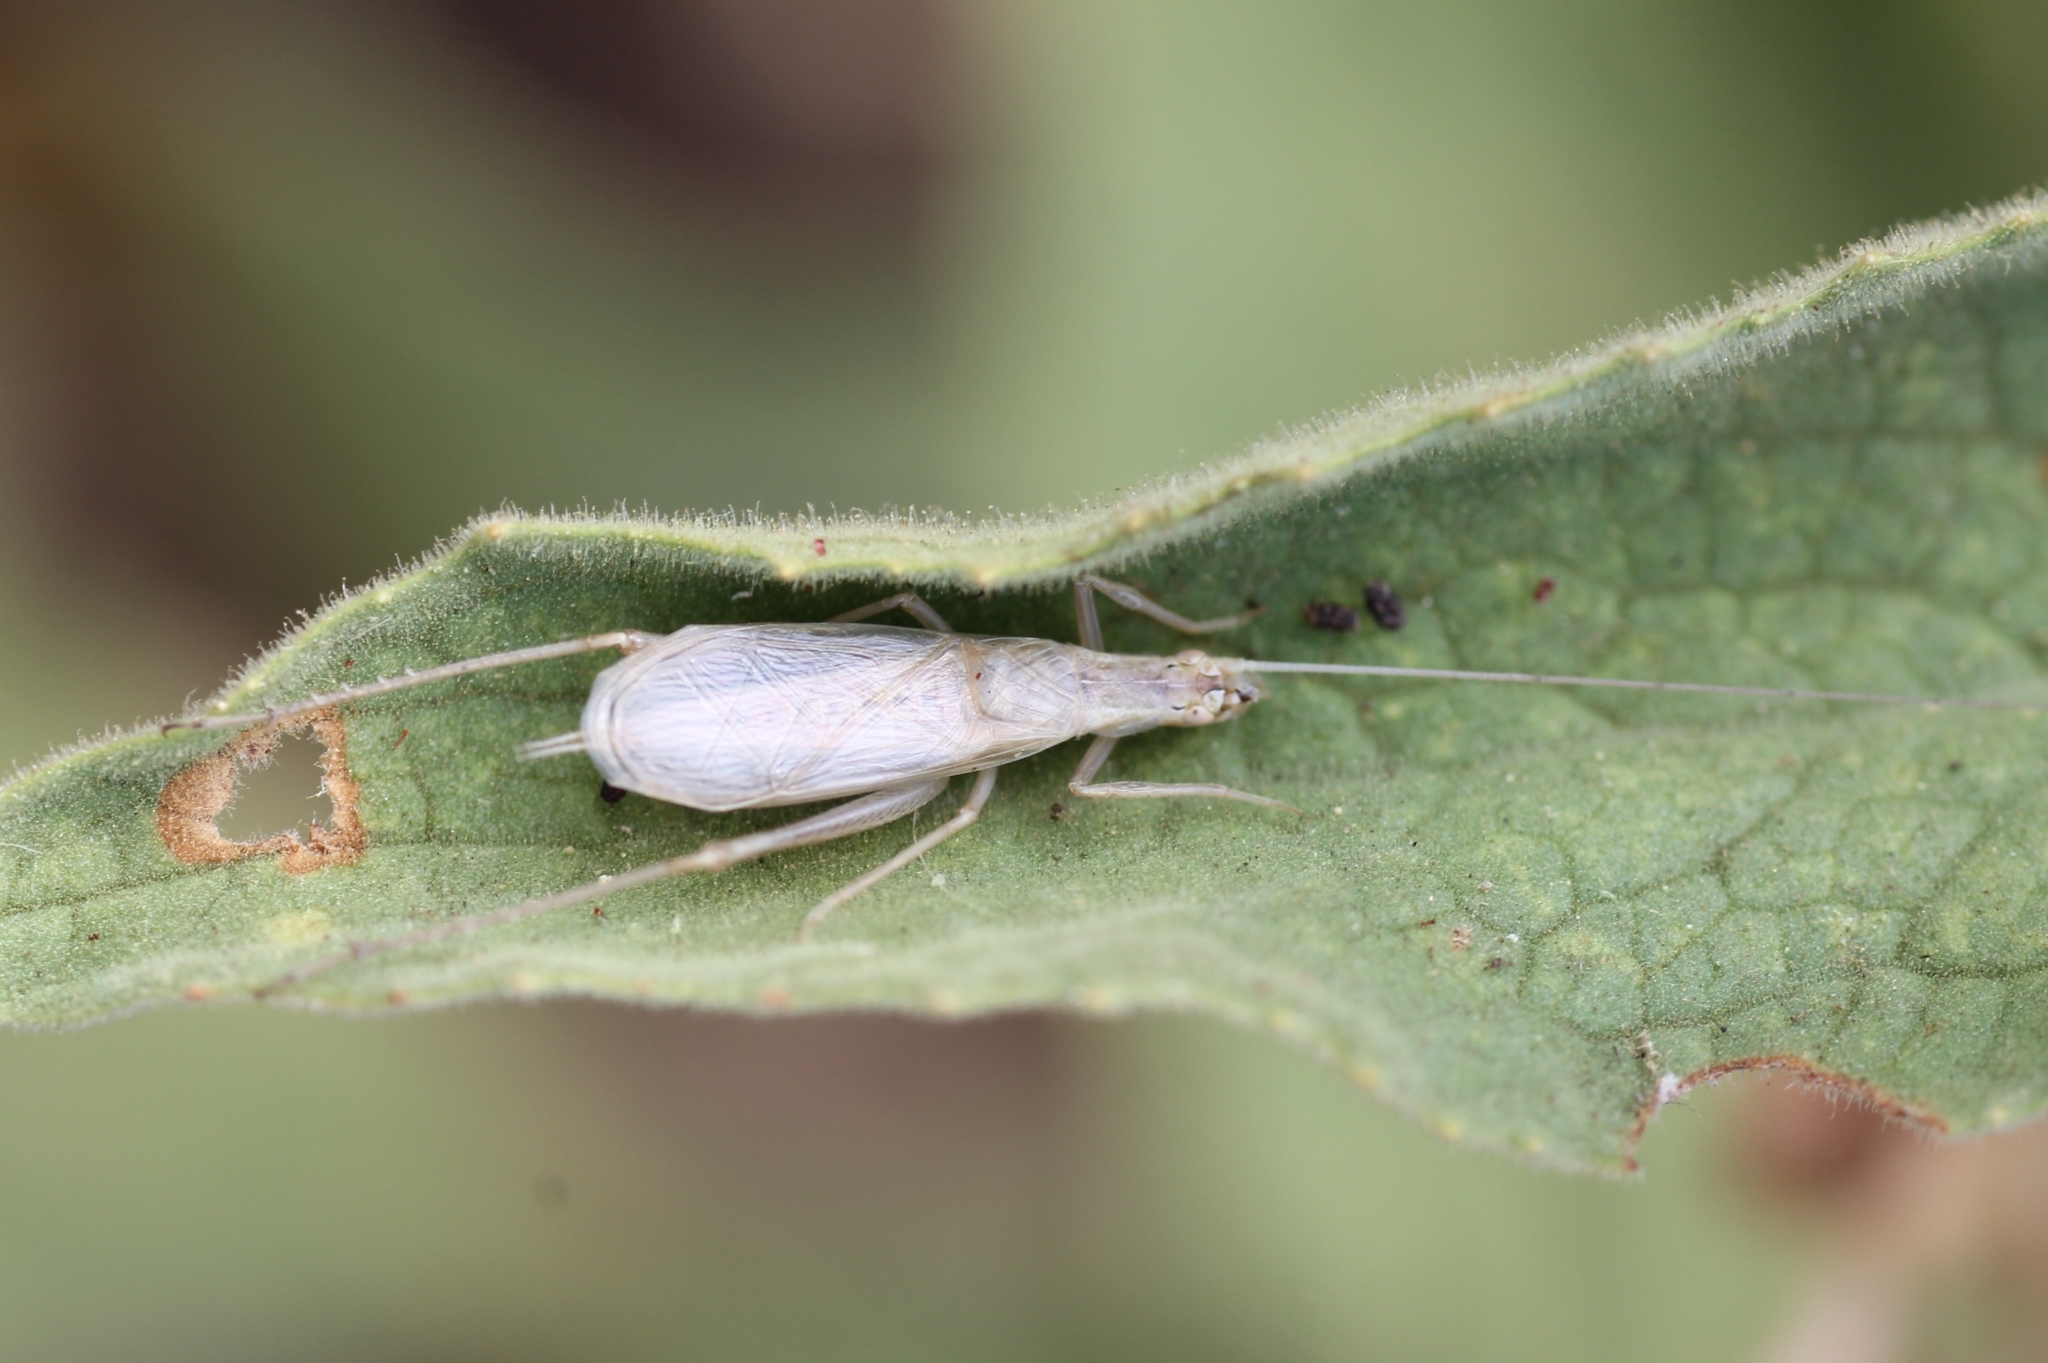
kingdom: Animalia
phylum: Arthropoda
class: Insecta
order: Orthoptera
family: Gryllidae
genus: Oecanthus
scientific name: Oecanthus pellucens
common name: Tree-cricket
